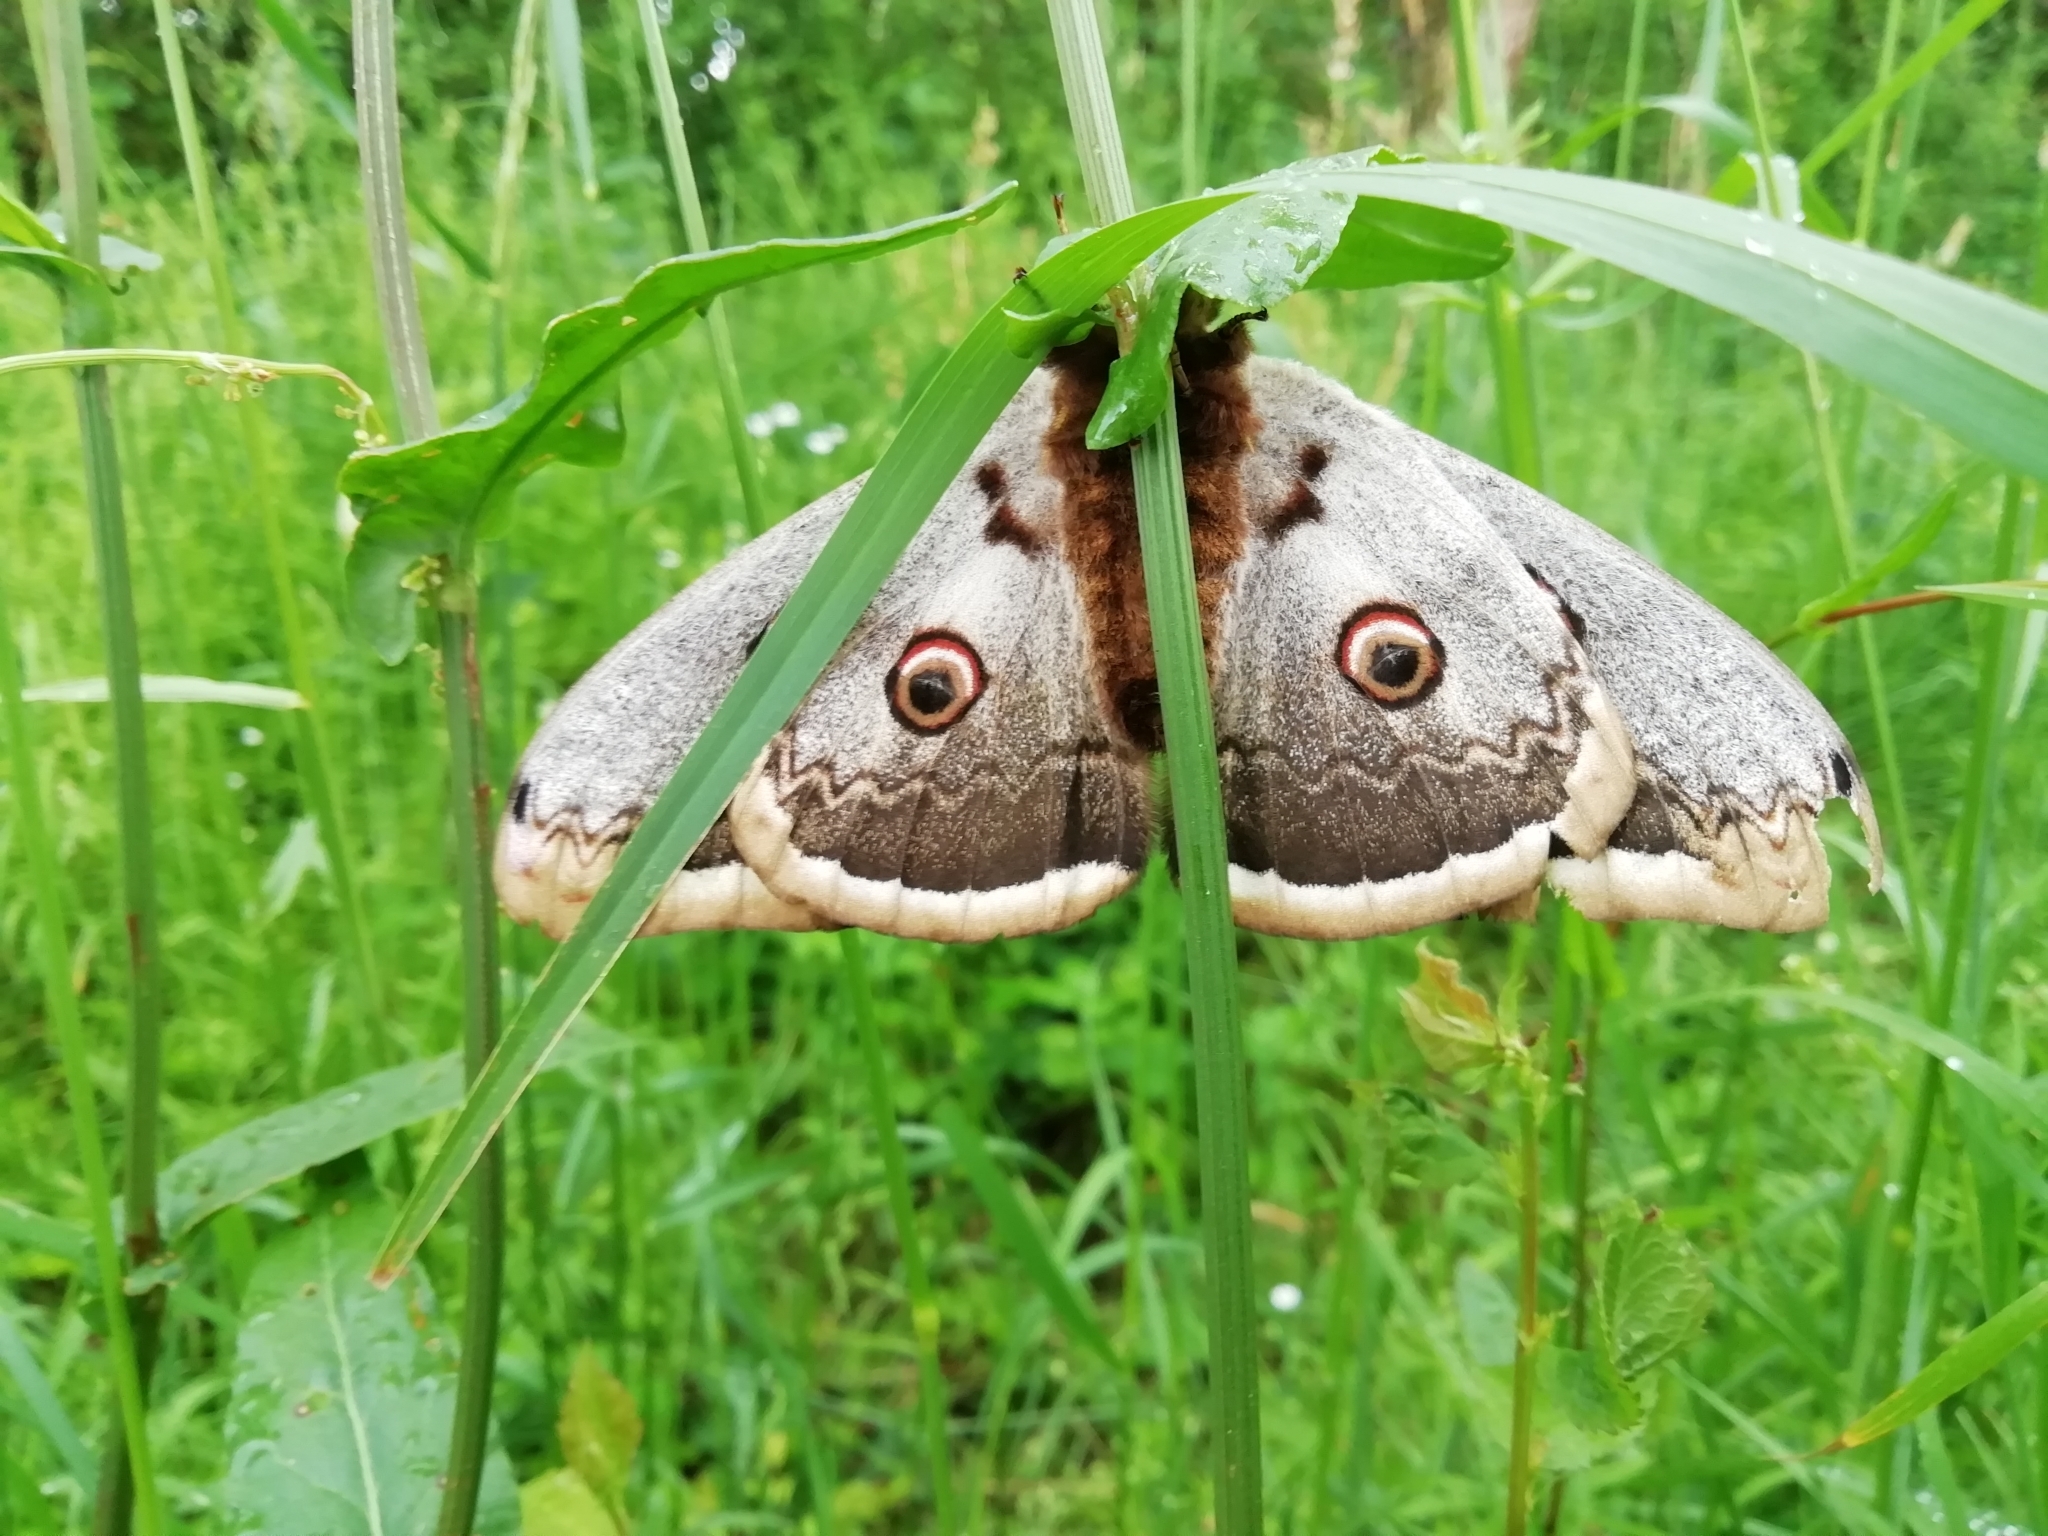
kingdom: Animalia
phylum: Arthropoda
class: Insecta
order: Lepidoptera
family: Saturniidae
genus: Saturnia
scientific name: Saturnia pyri
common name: Great peacock moth
